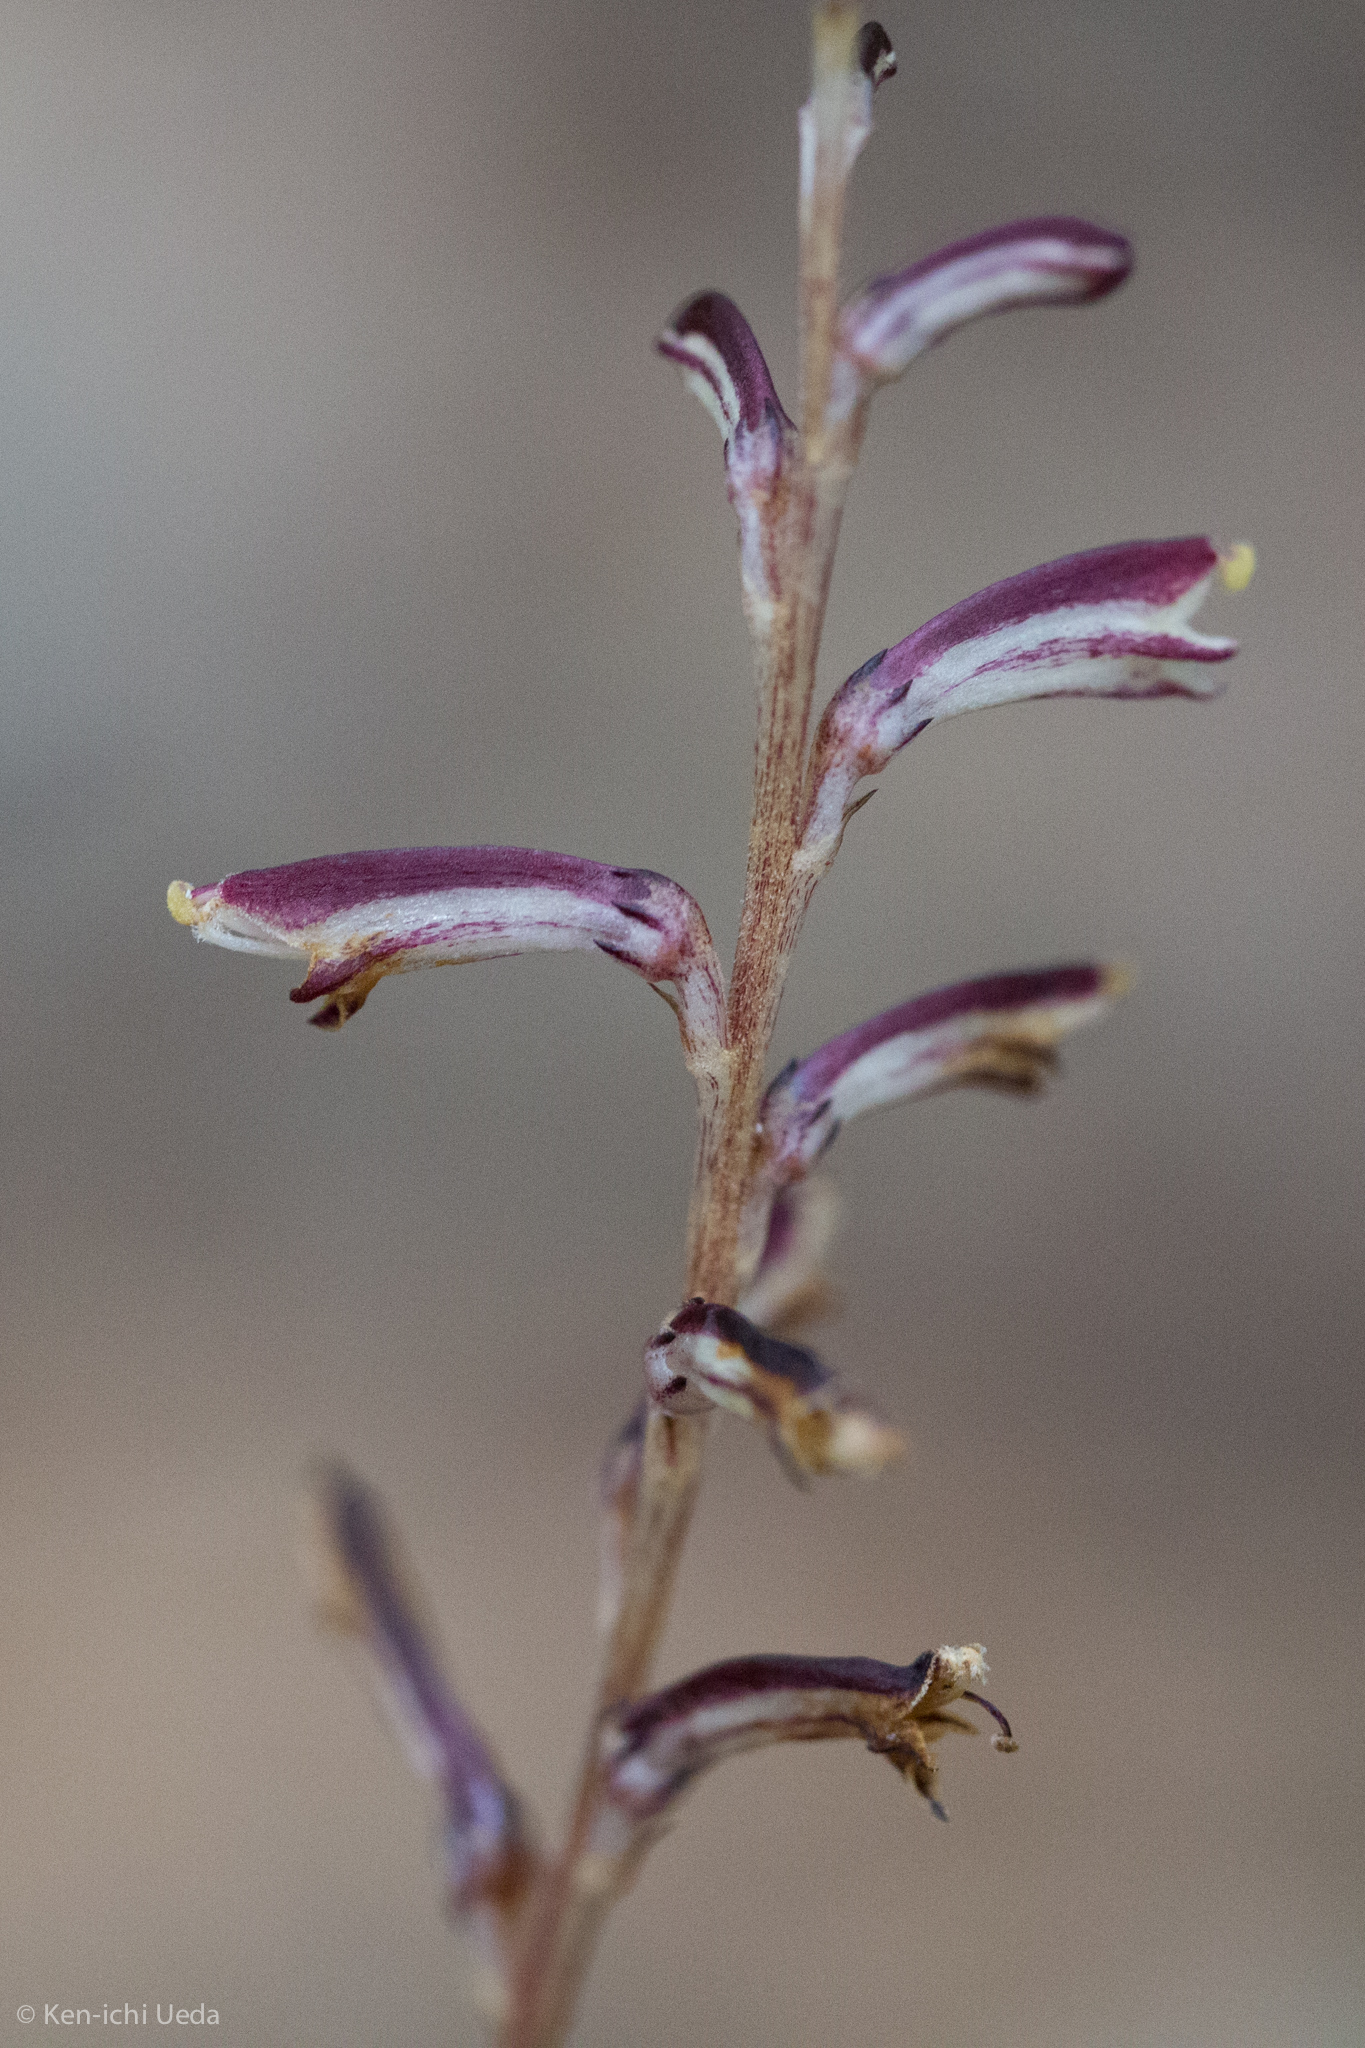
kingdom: Plantae
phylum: Tracheophyta
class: Magnoliopsida
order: Lamiales
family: Orobanchaceae
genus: Epifagus
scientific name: Epifagus virginiana
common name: Beechdrops
